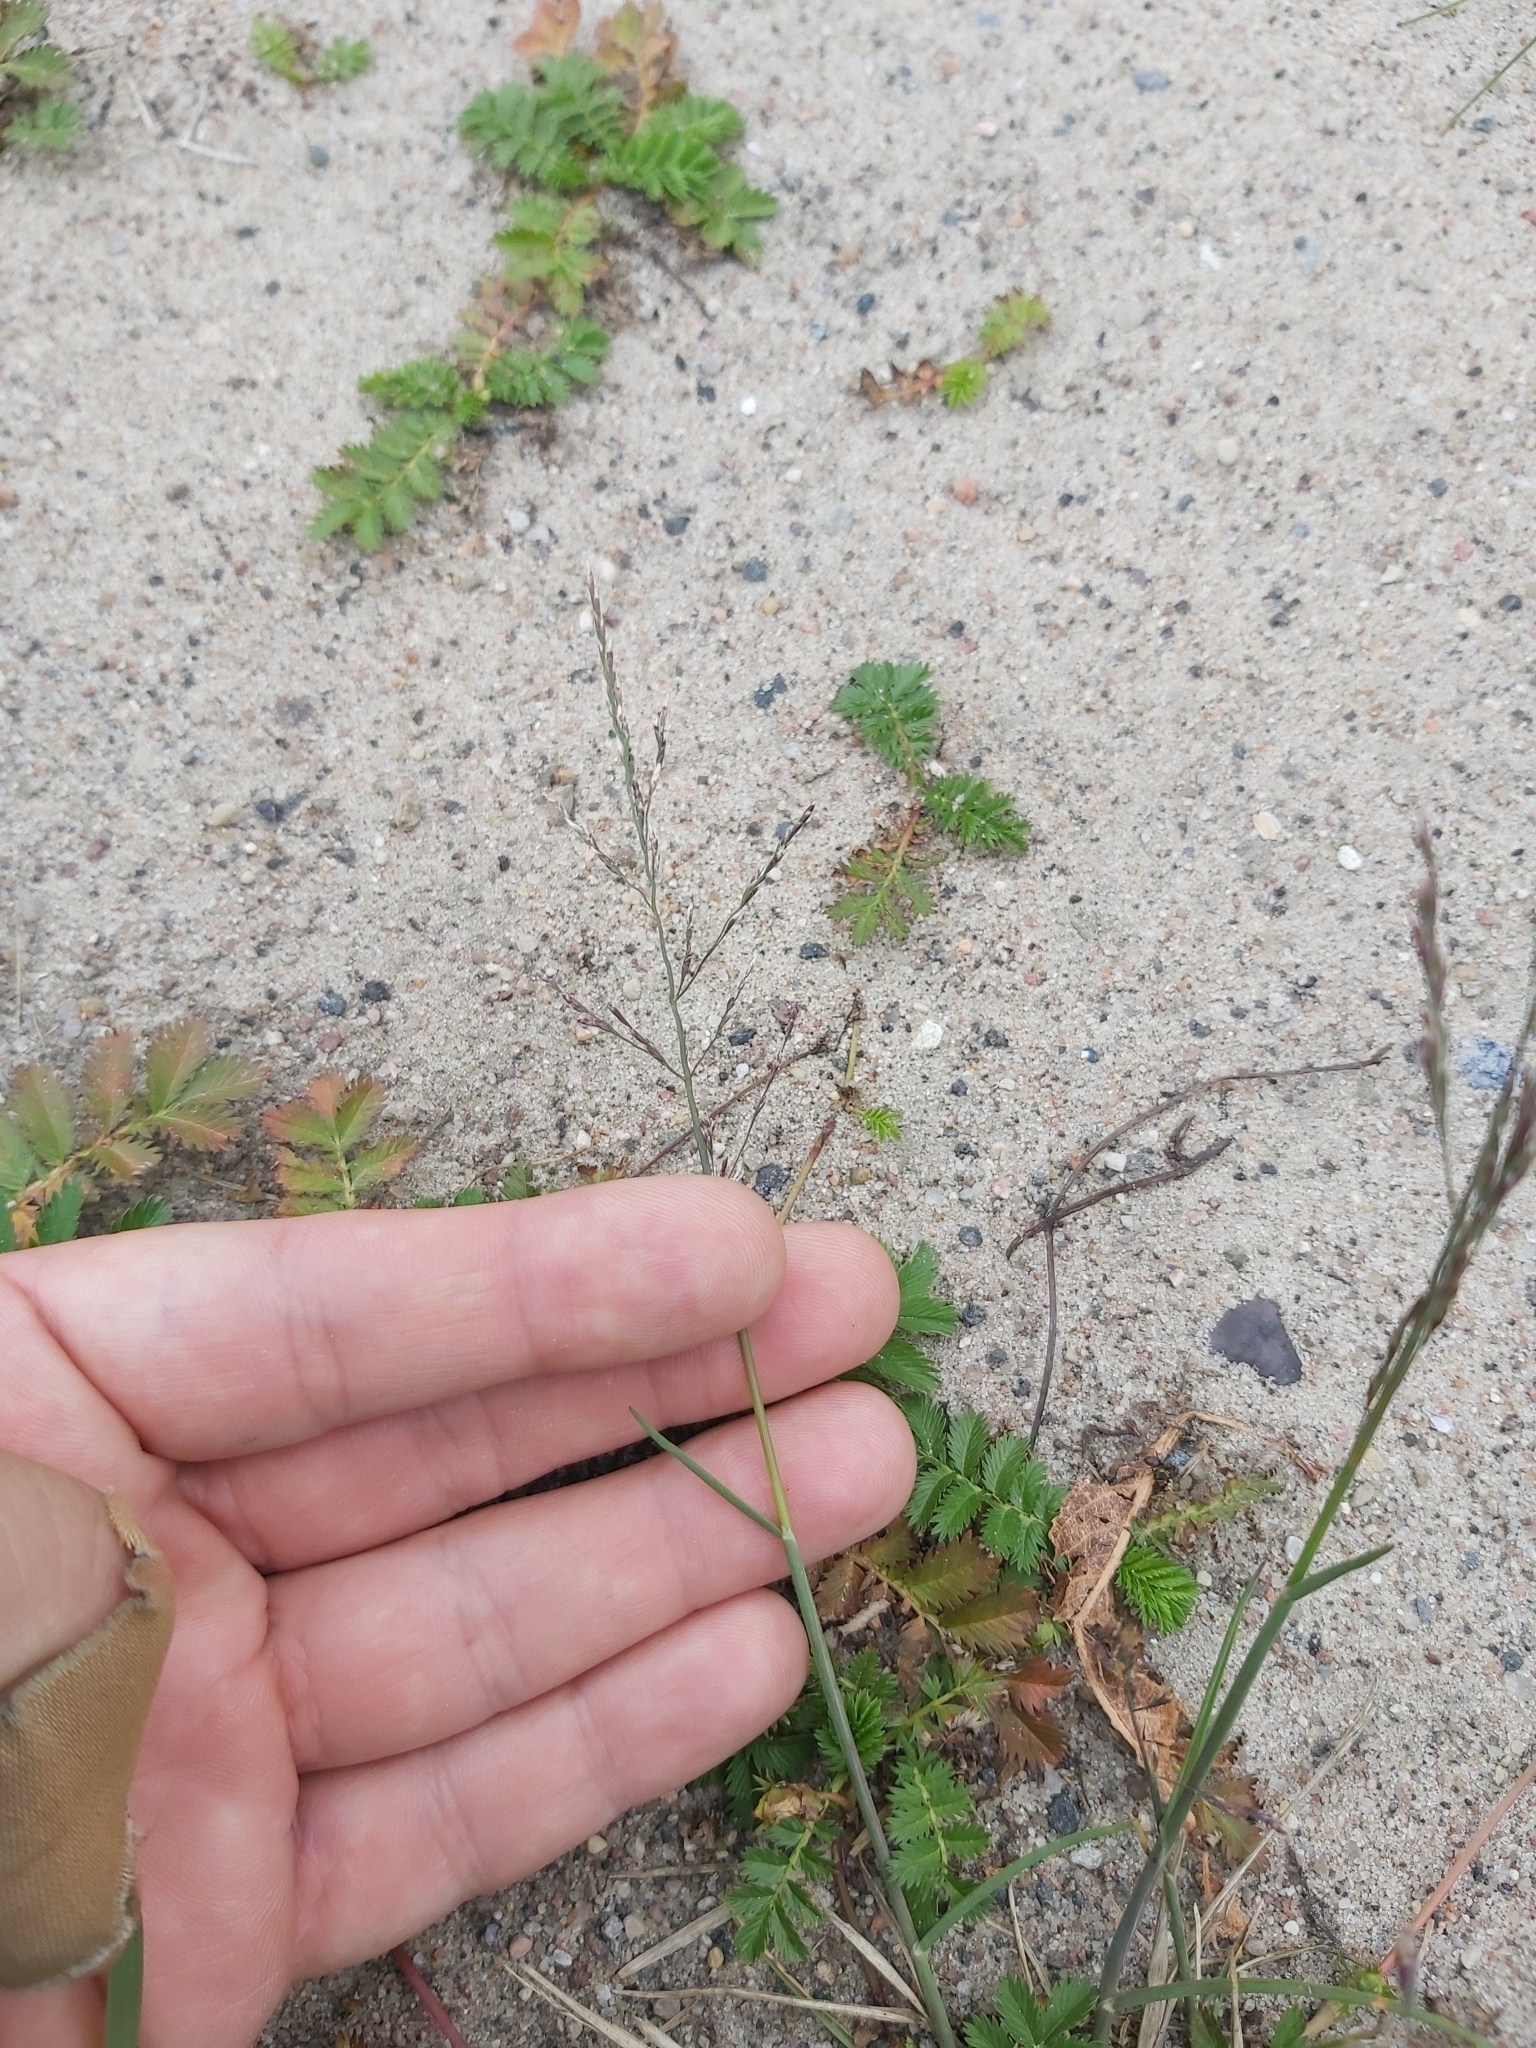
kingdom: Plantae
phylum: Tracheophyta
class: Liliopsida
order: Poales
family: Poaceae
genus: Puccinellia
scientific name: Puccinellia distans
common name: Weeping alkaligrass
